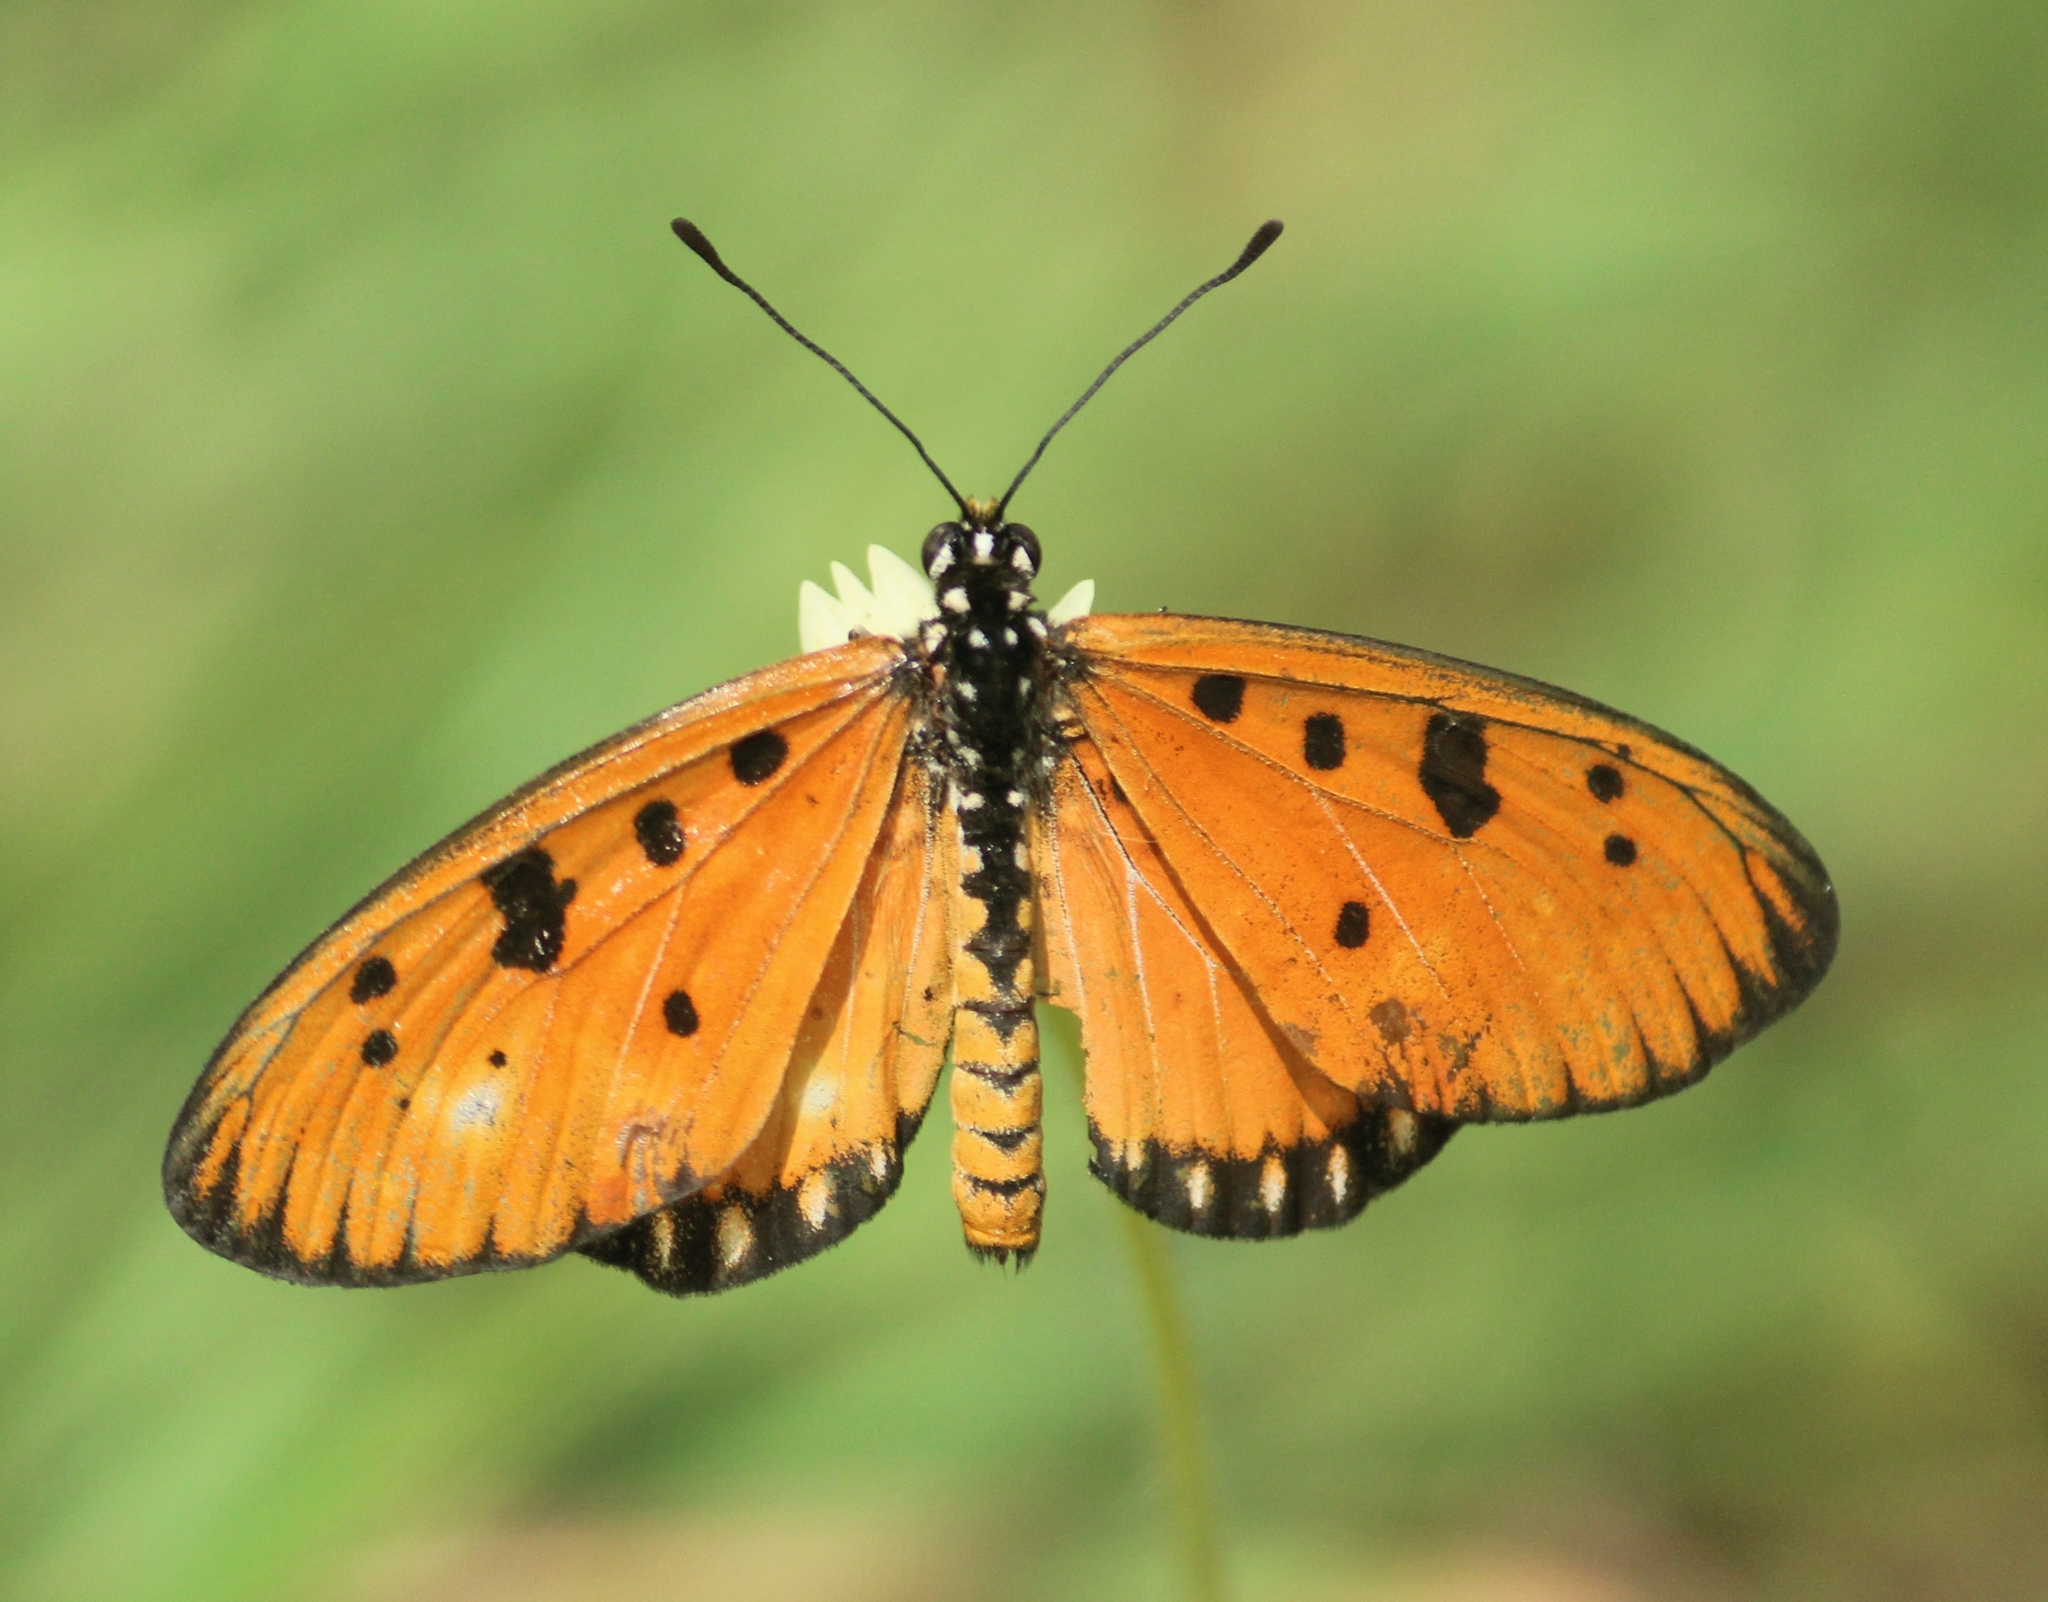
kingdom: Animalia
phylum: Arthropoda
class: Insecta
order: Lepidoptera
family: Nymphalidae
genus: Acraea
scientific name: Acraea terpsicore
